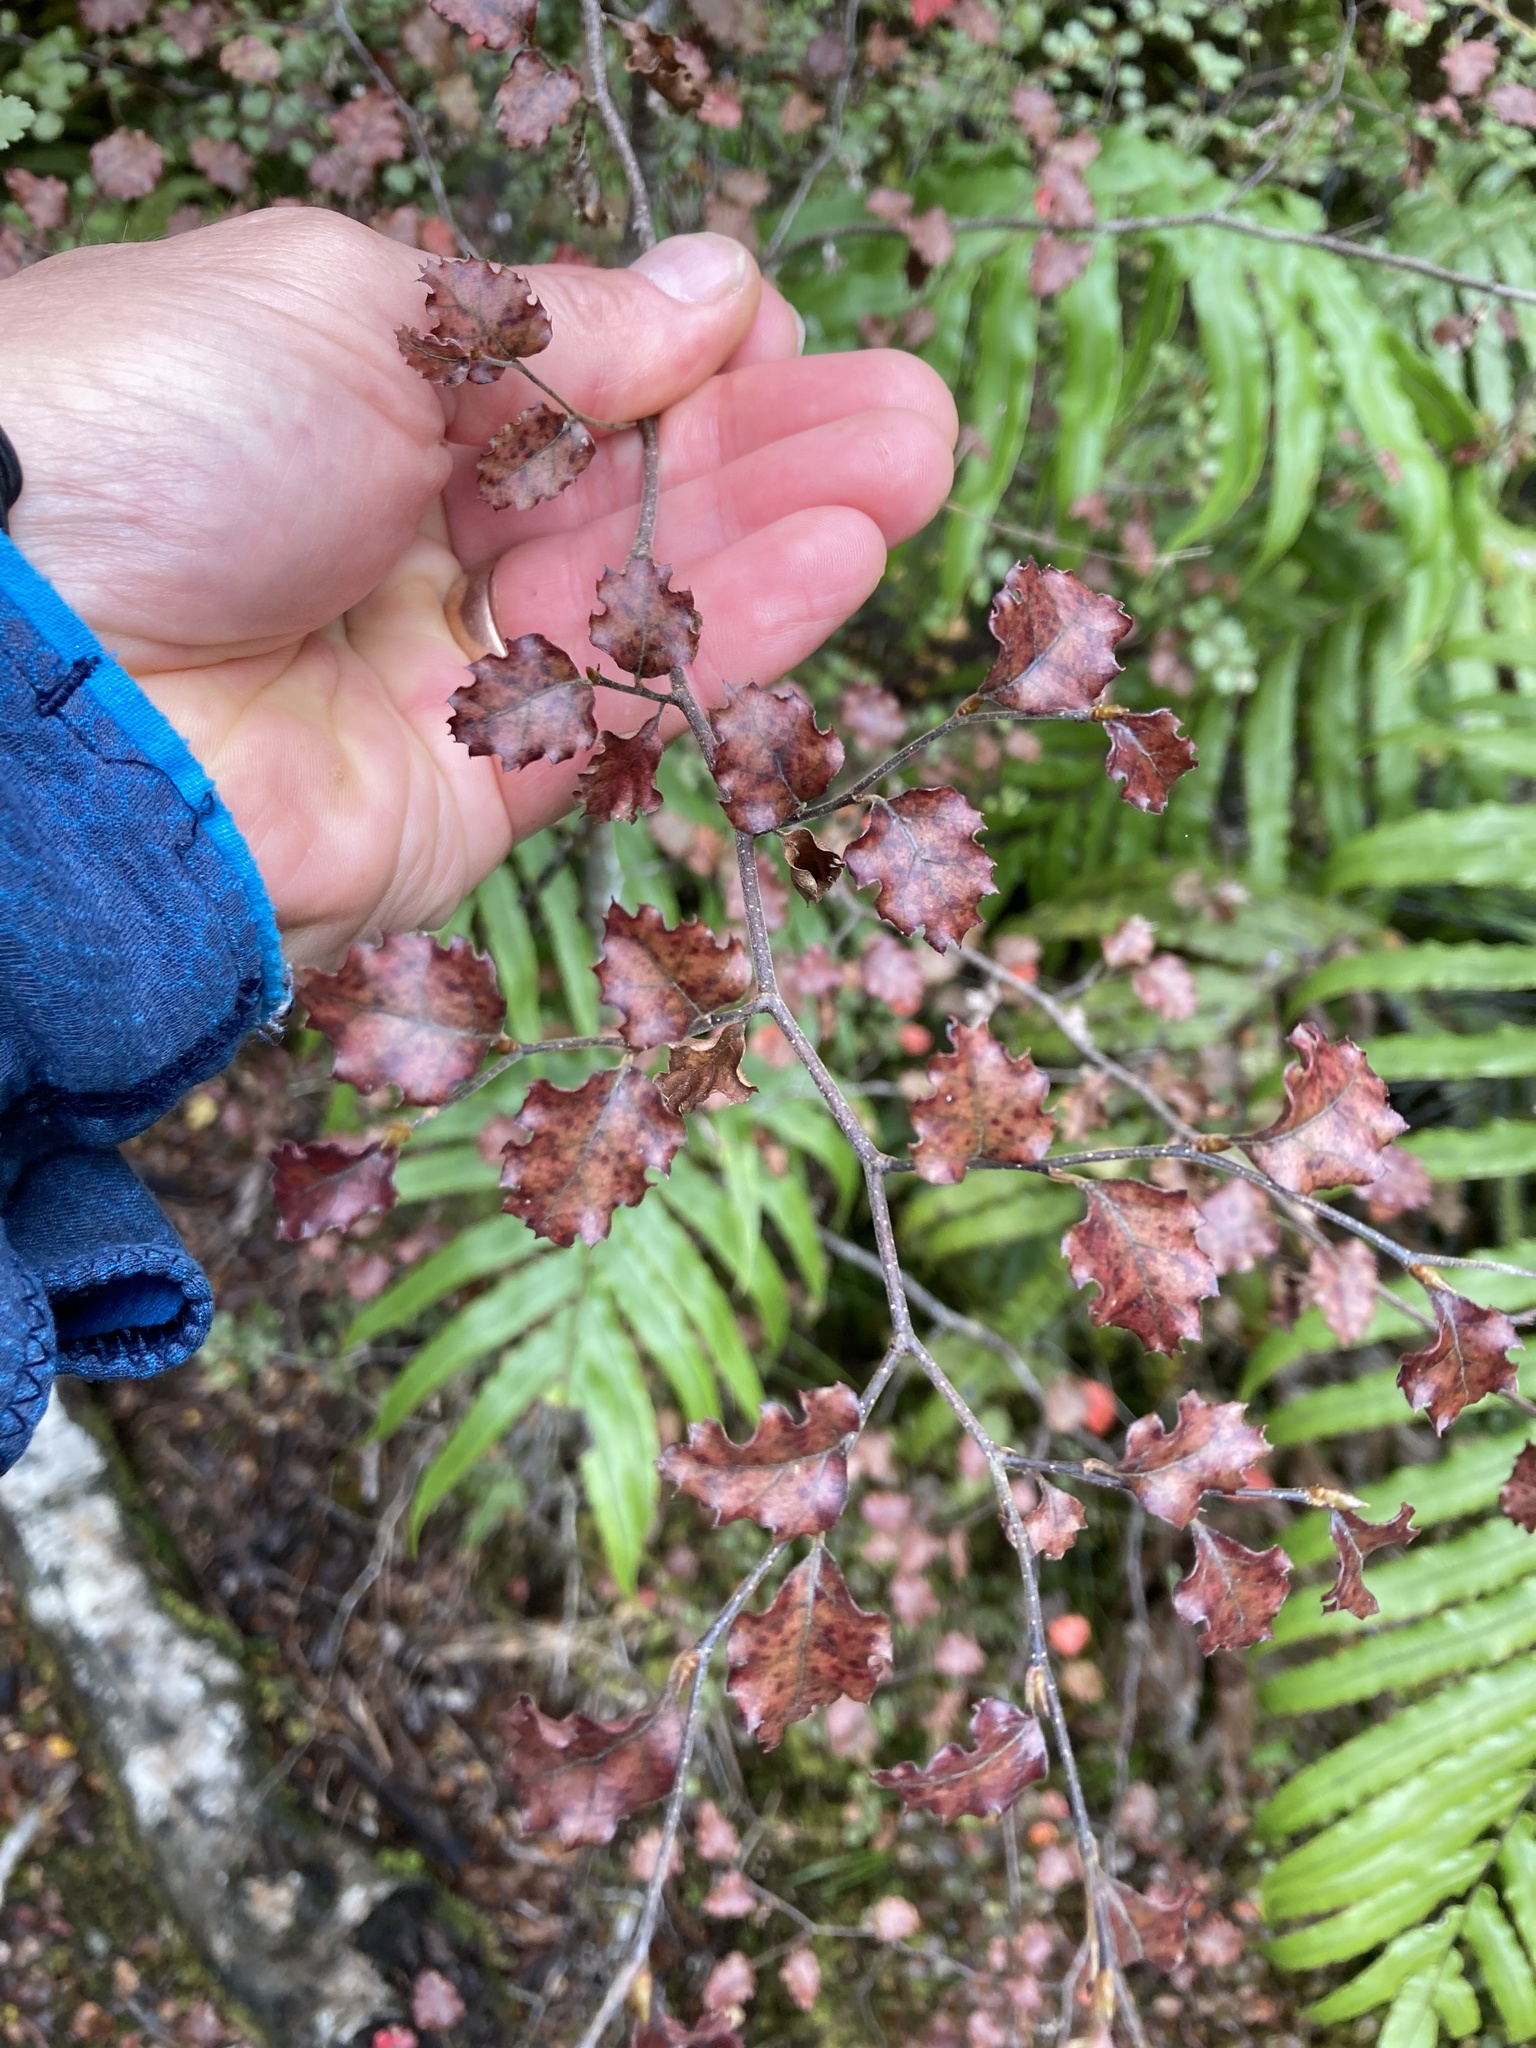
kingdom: Plantae
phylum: Tracheophyta
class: Magnoliopsida
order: Fagales
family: Nothofagaceae
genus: Nothofagus
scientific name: Nothofagus fusca
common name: Red beech
